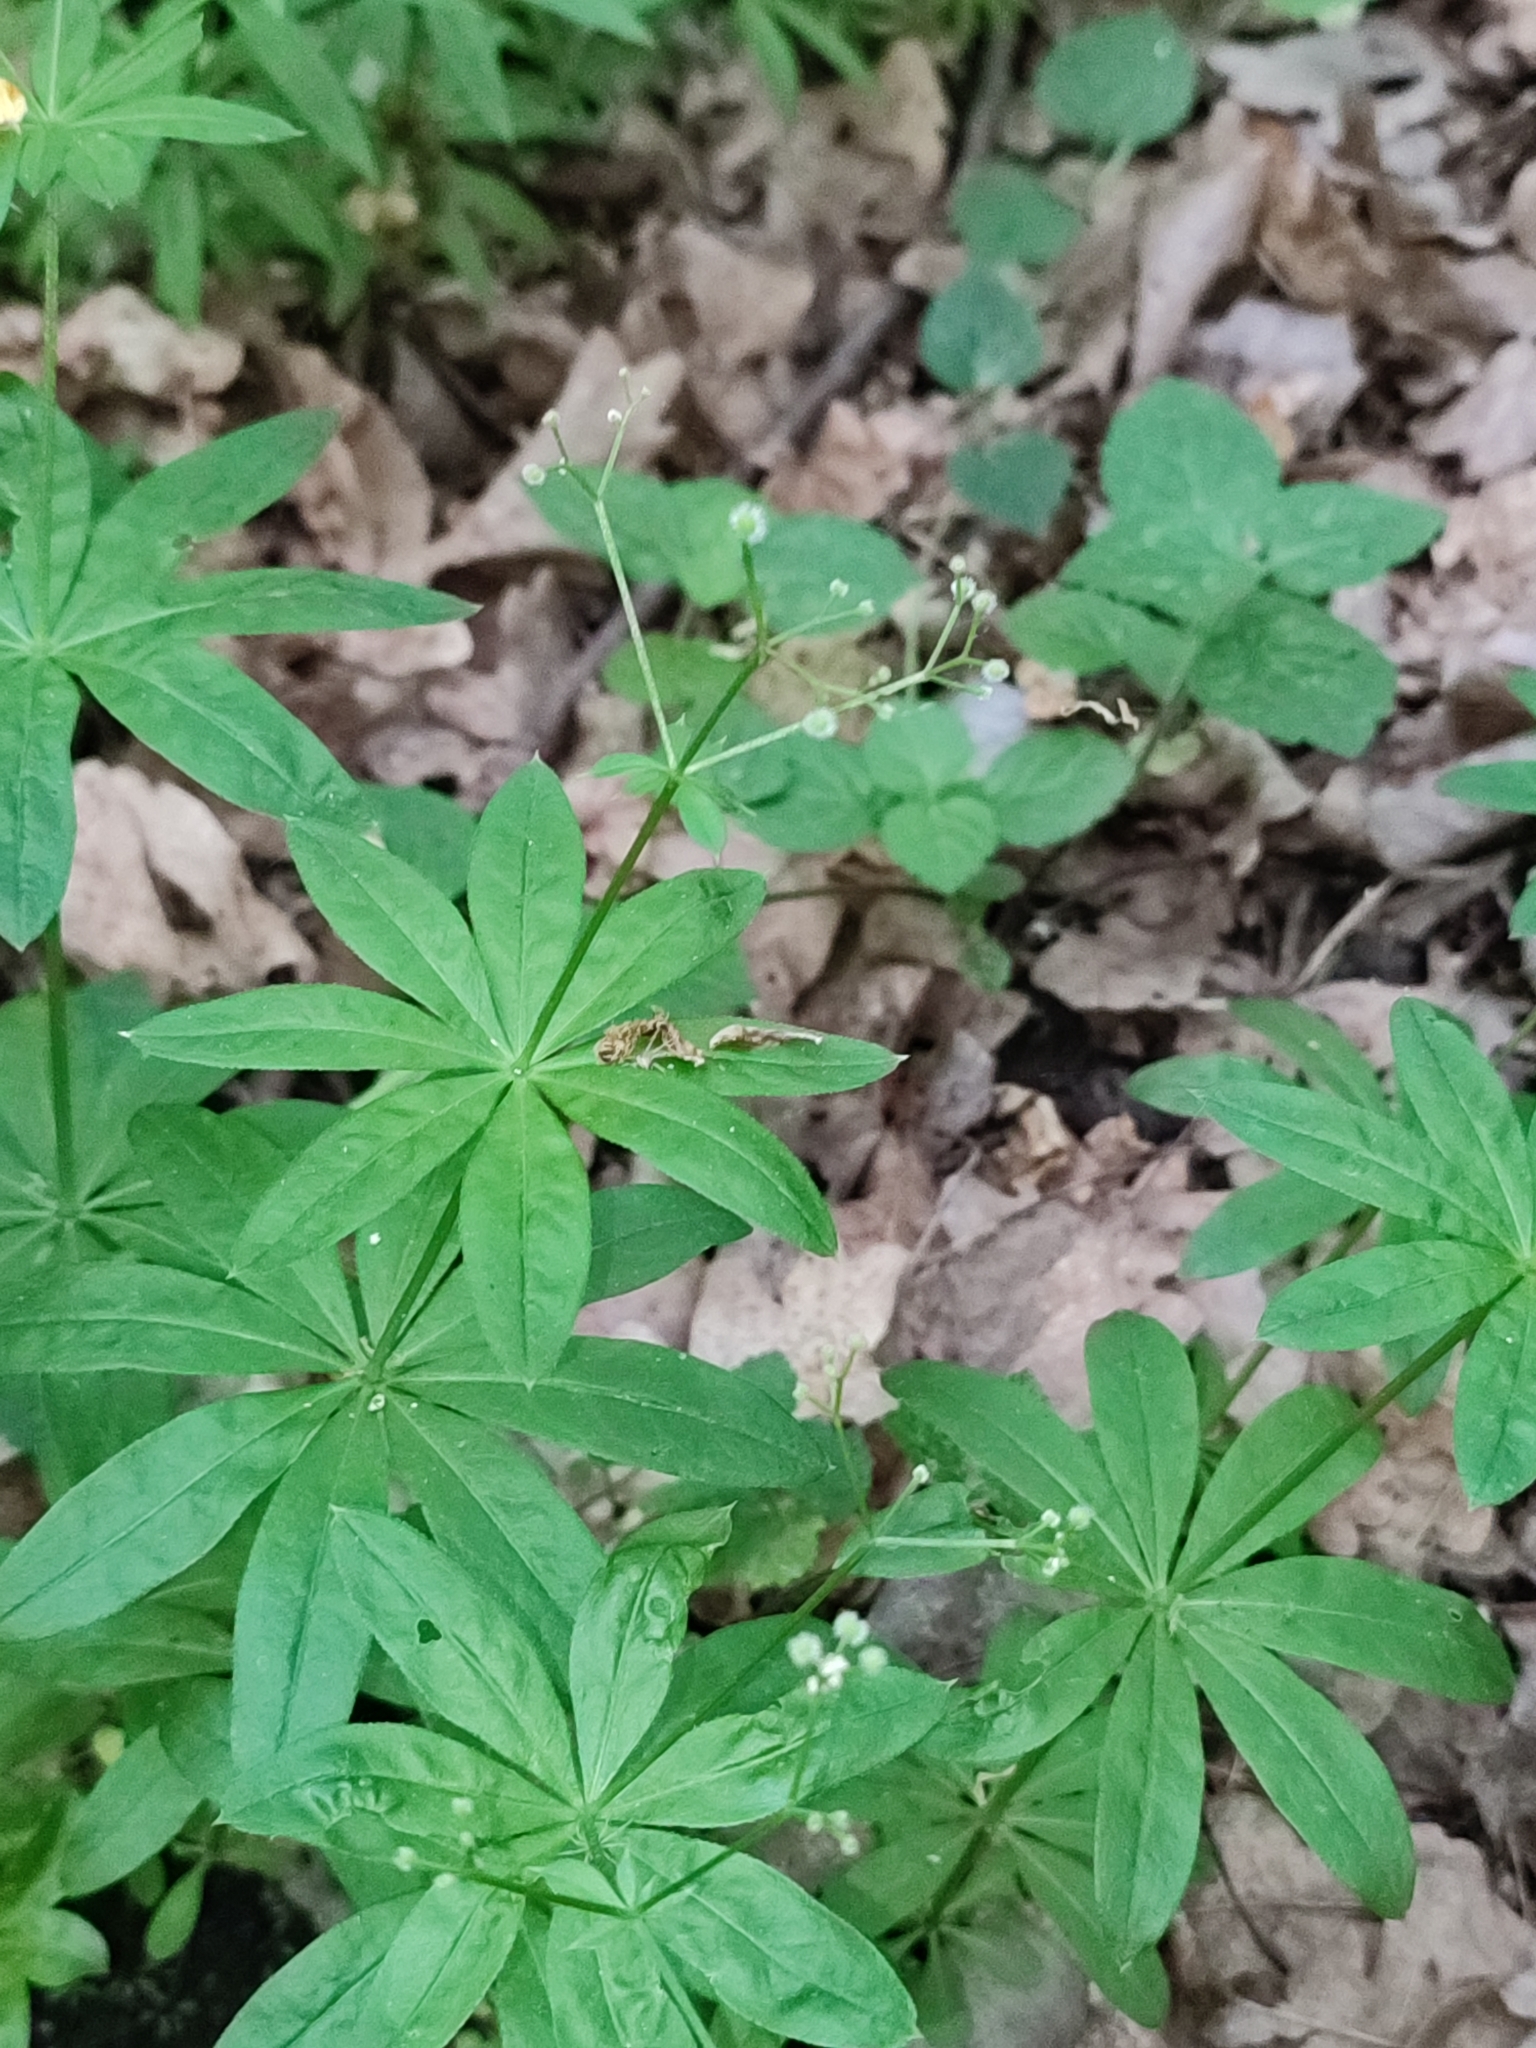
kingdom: Plantae
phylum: Tracheophyta
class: Magnoliopsida
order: Gentianales
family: Rubiaceae
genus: Galium
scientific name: Galium odoratum
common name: Sweet woodruff
